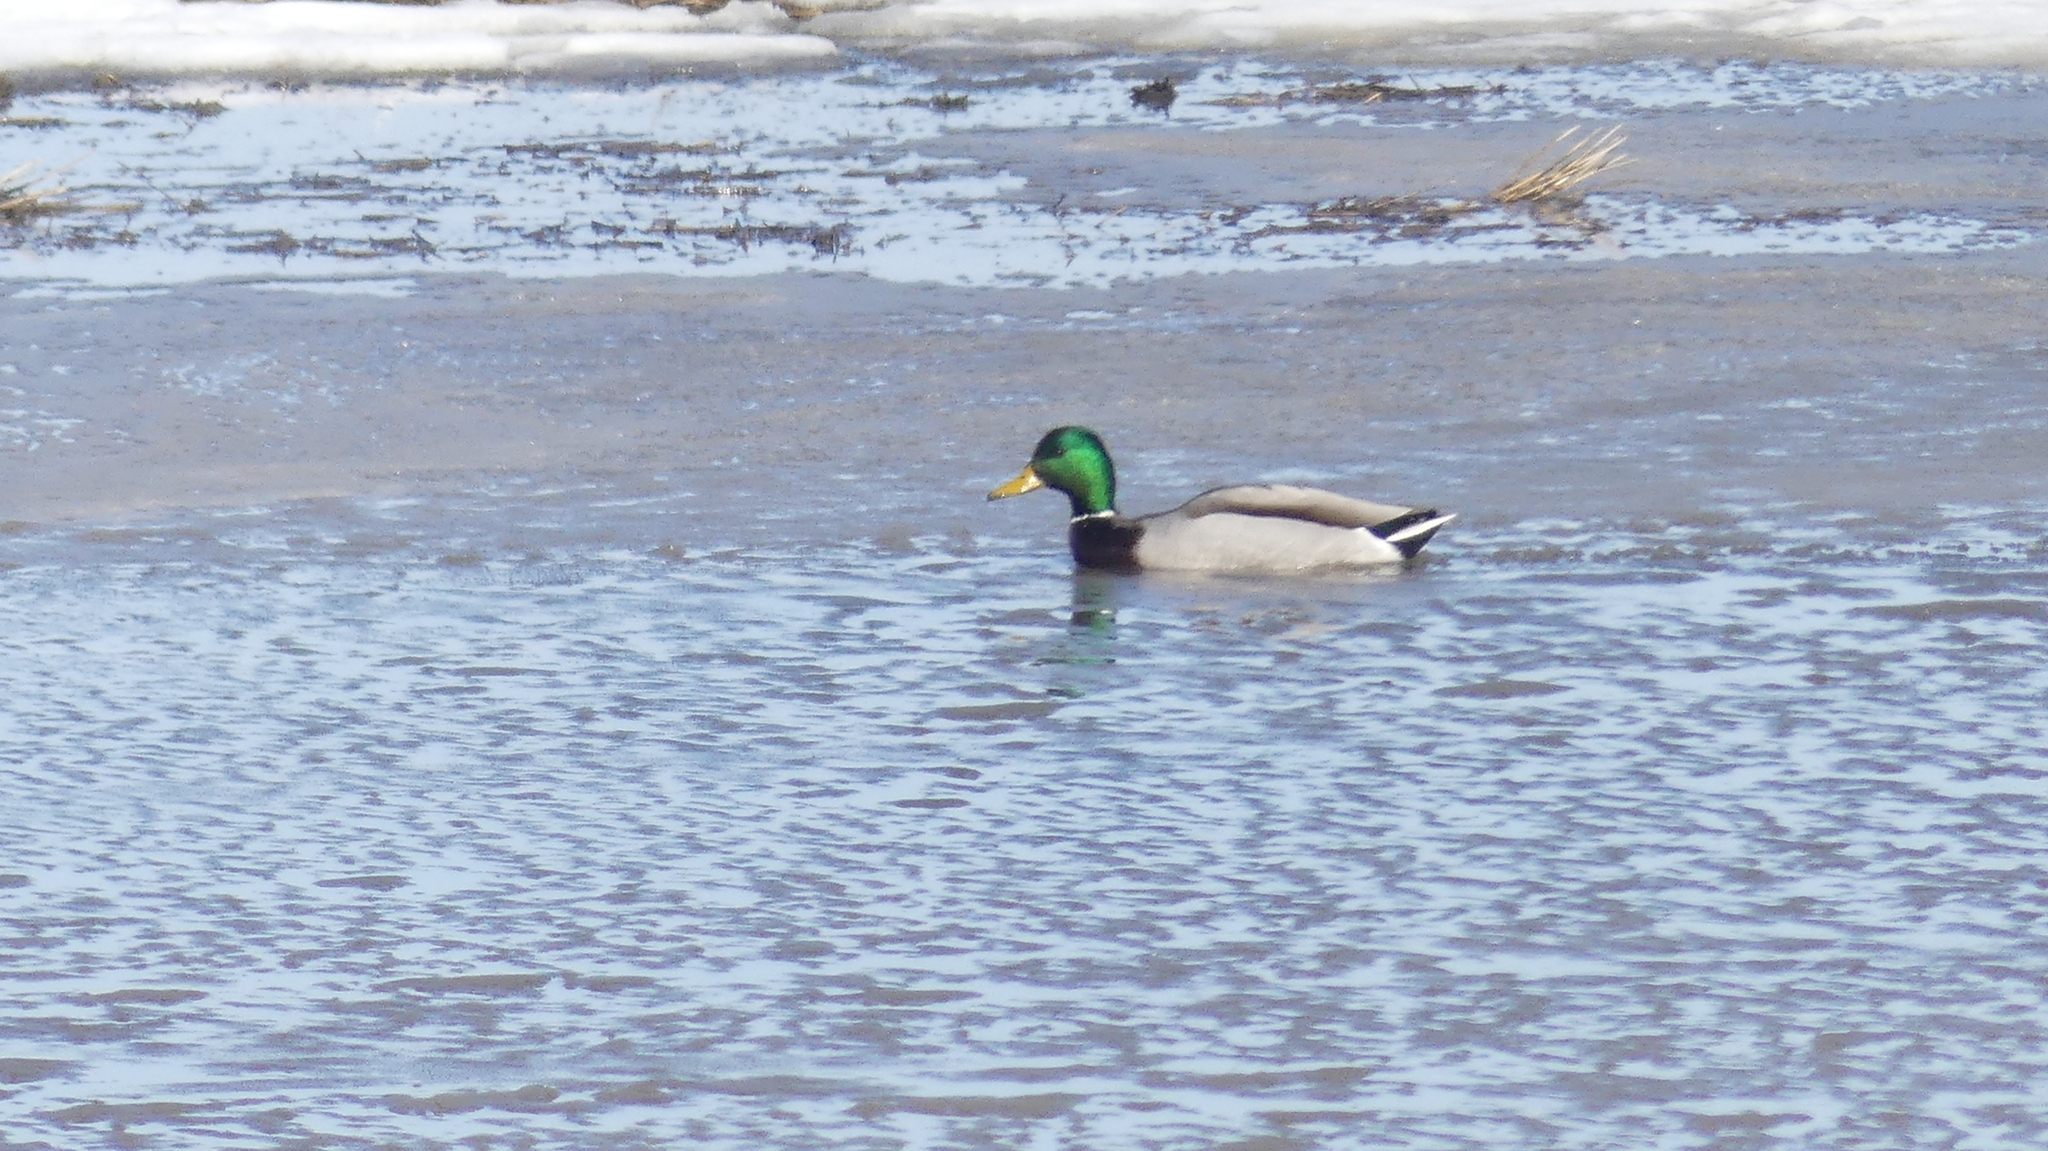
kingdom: Animalia
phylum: Chordata
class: Aves
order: Anseriformes
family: Anatidae
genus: Anas
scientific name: Anas platyrhynchos
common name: Mallard
